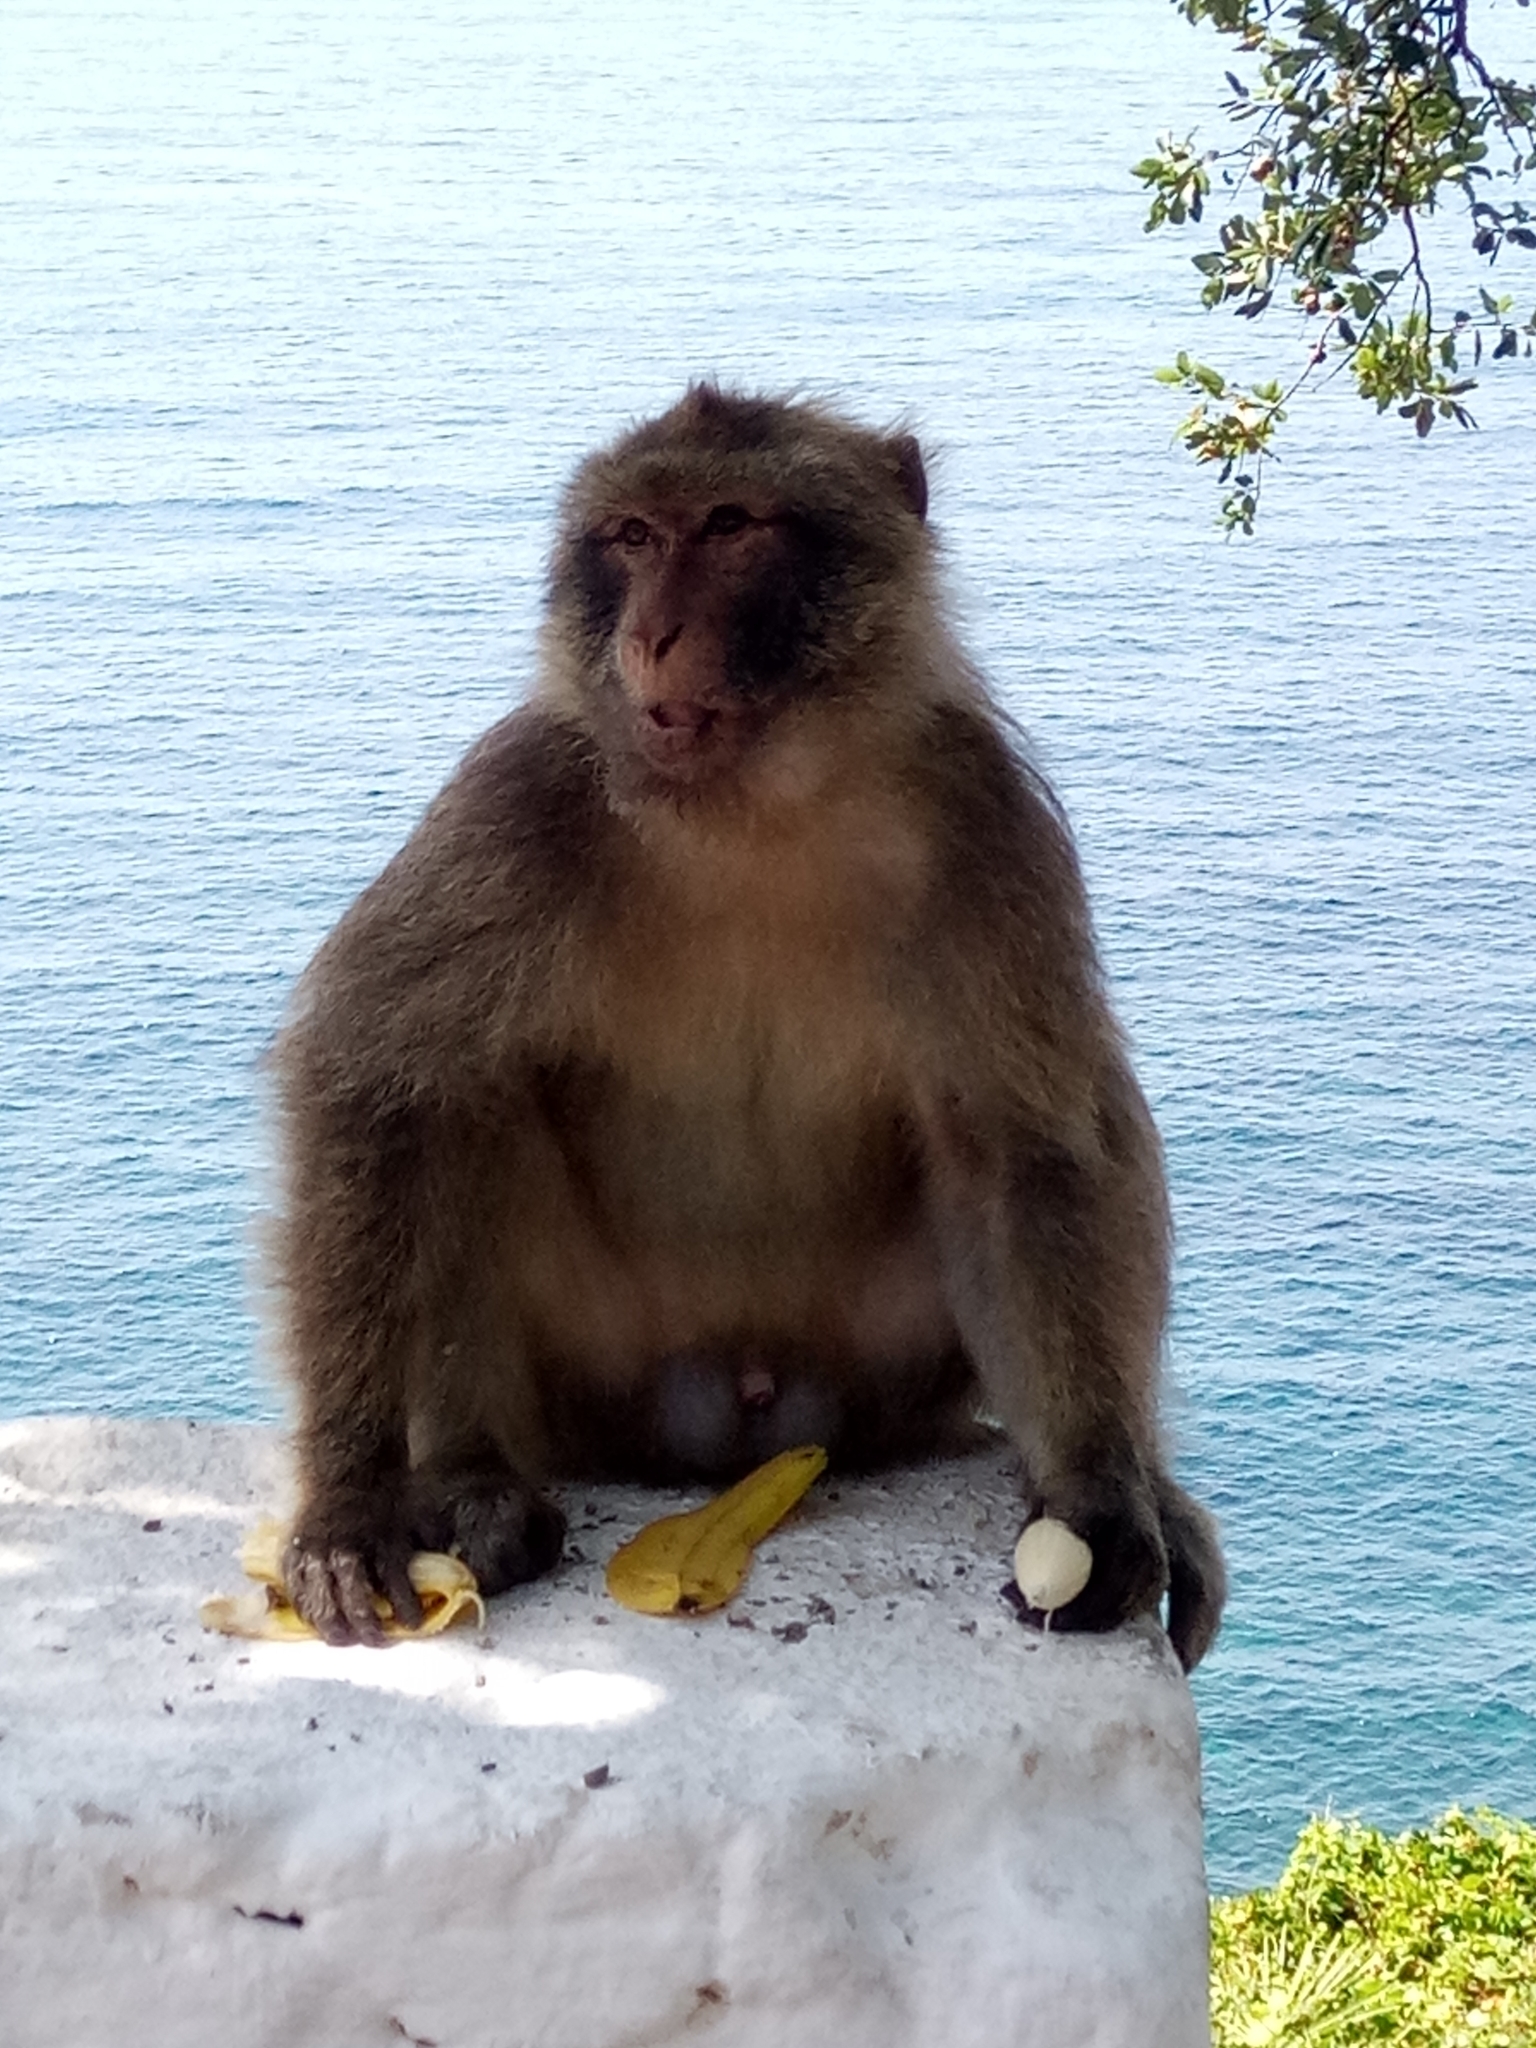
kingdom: Animalia
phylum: Chordata
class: Mammalia
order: Primates
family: Cercopithecidae
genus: Macaca
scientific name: Macaca sylvanus
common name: Barbary macaque
